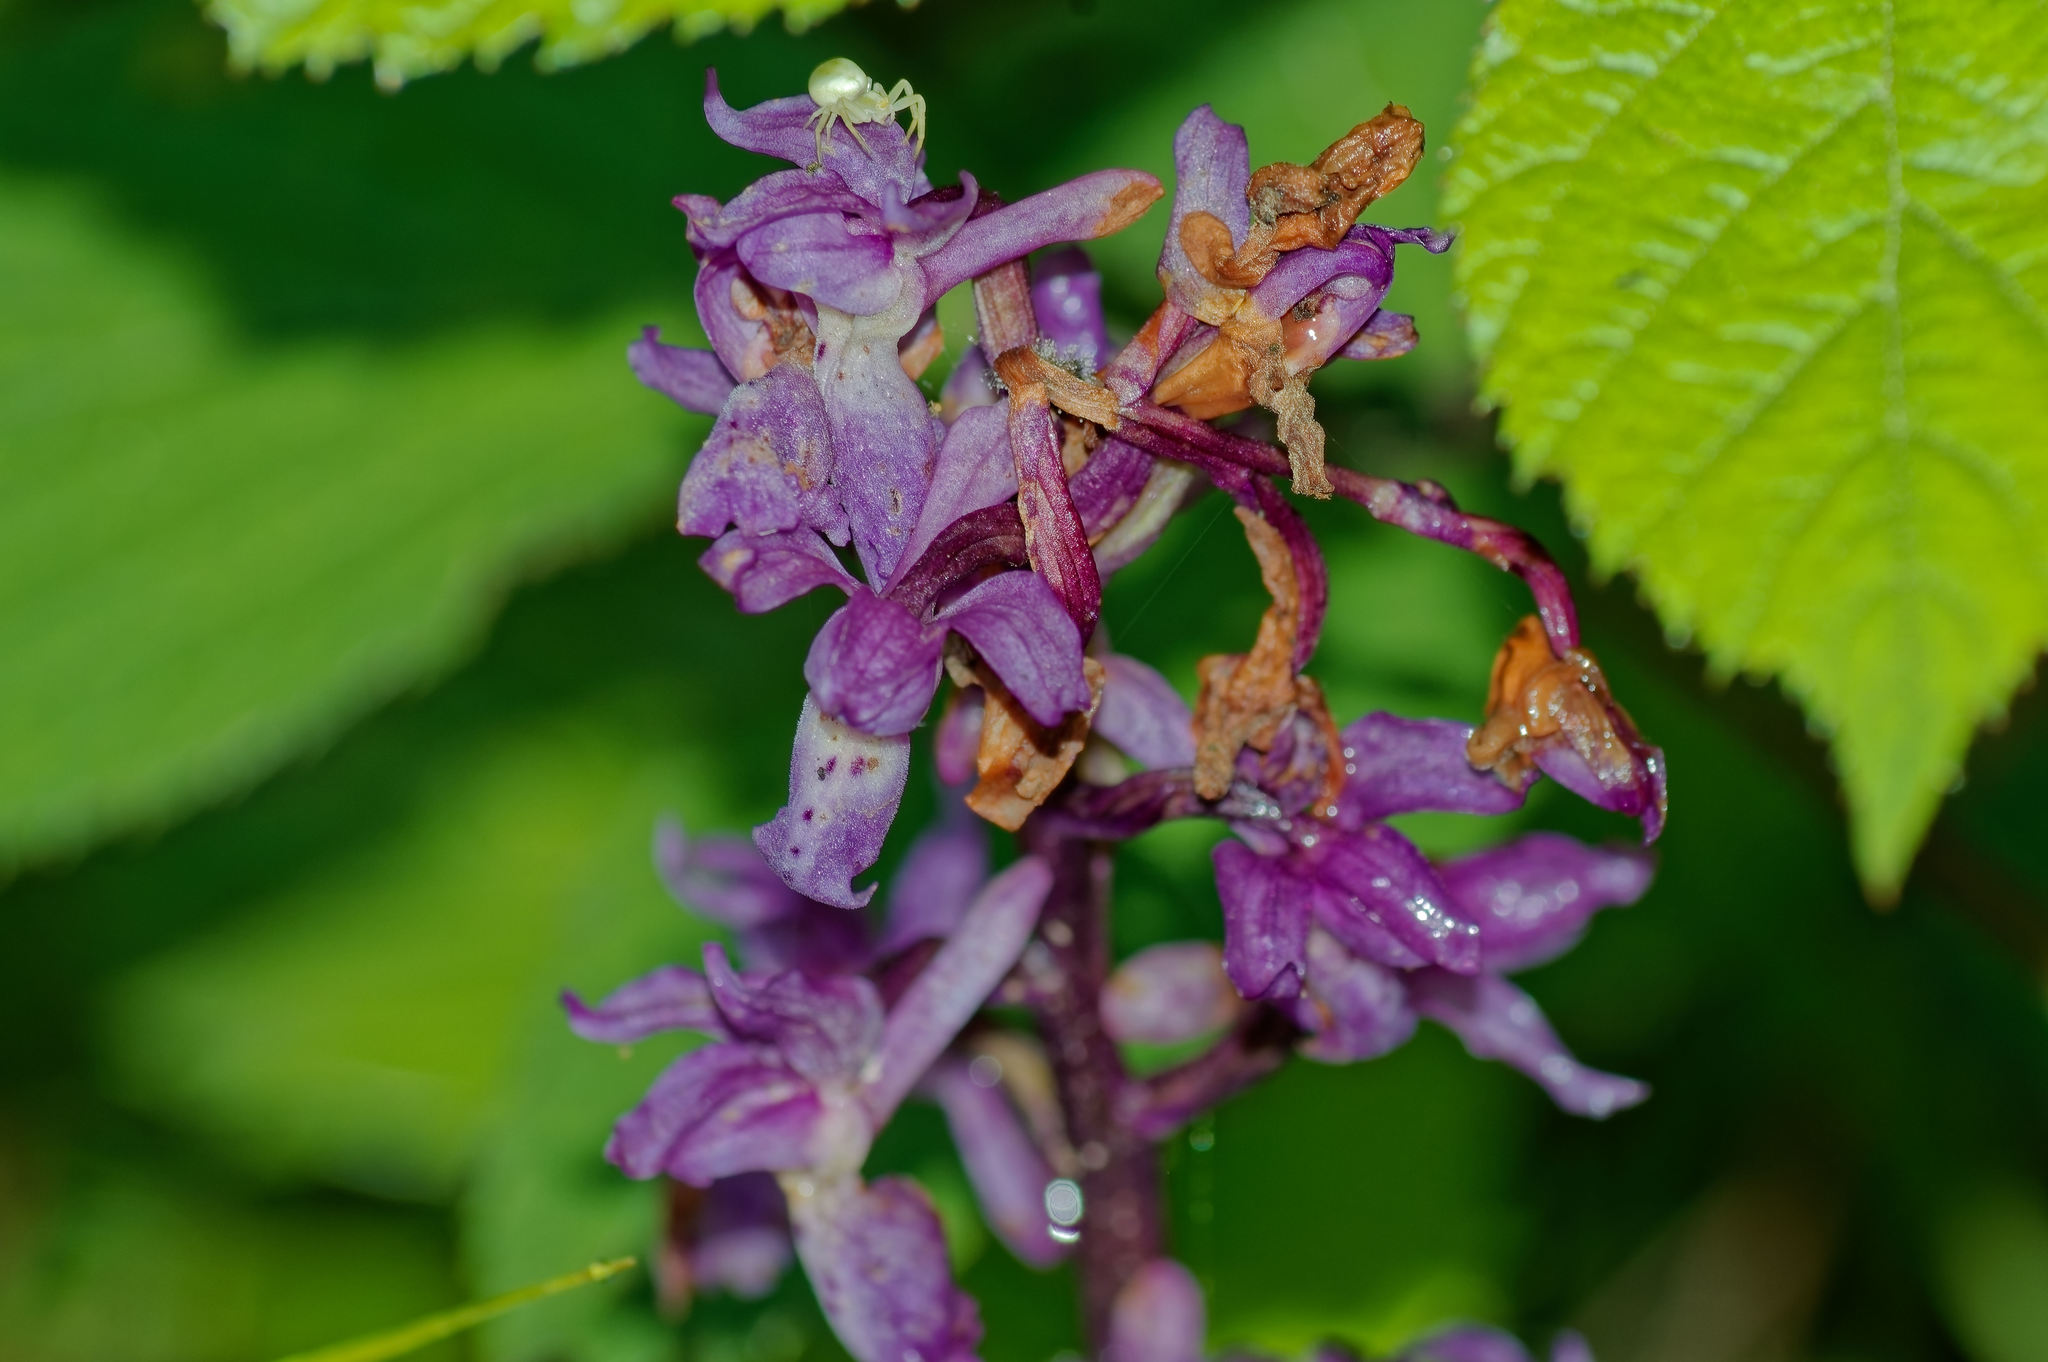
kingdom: Plantae
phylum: Tracheophyta
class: Liliopsida
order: Asparagales
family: Orchidaceae
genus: Orchis
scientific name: Orchis mascula
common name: Early-purple orchid
